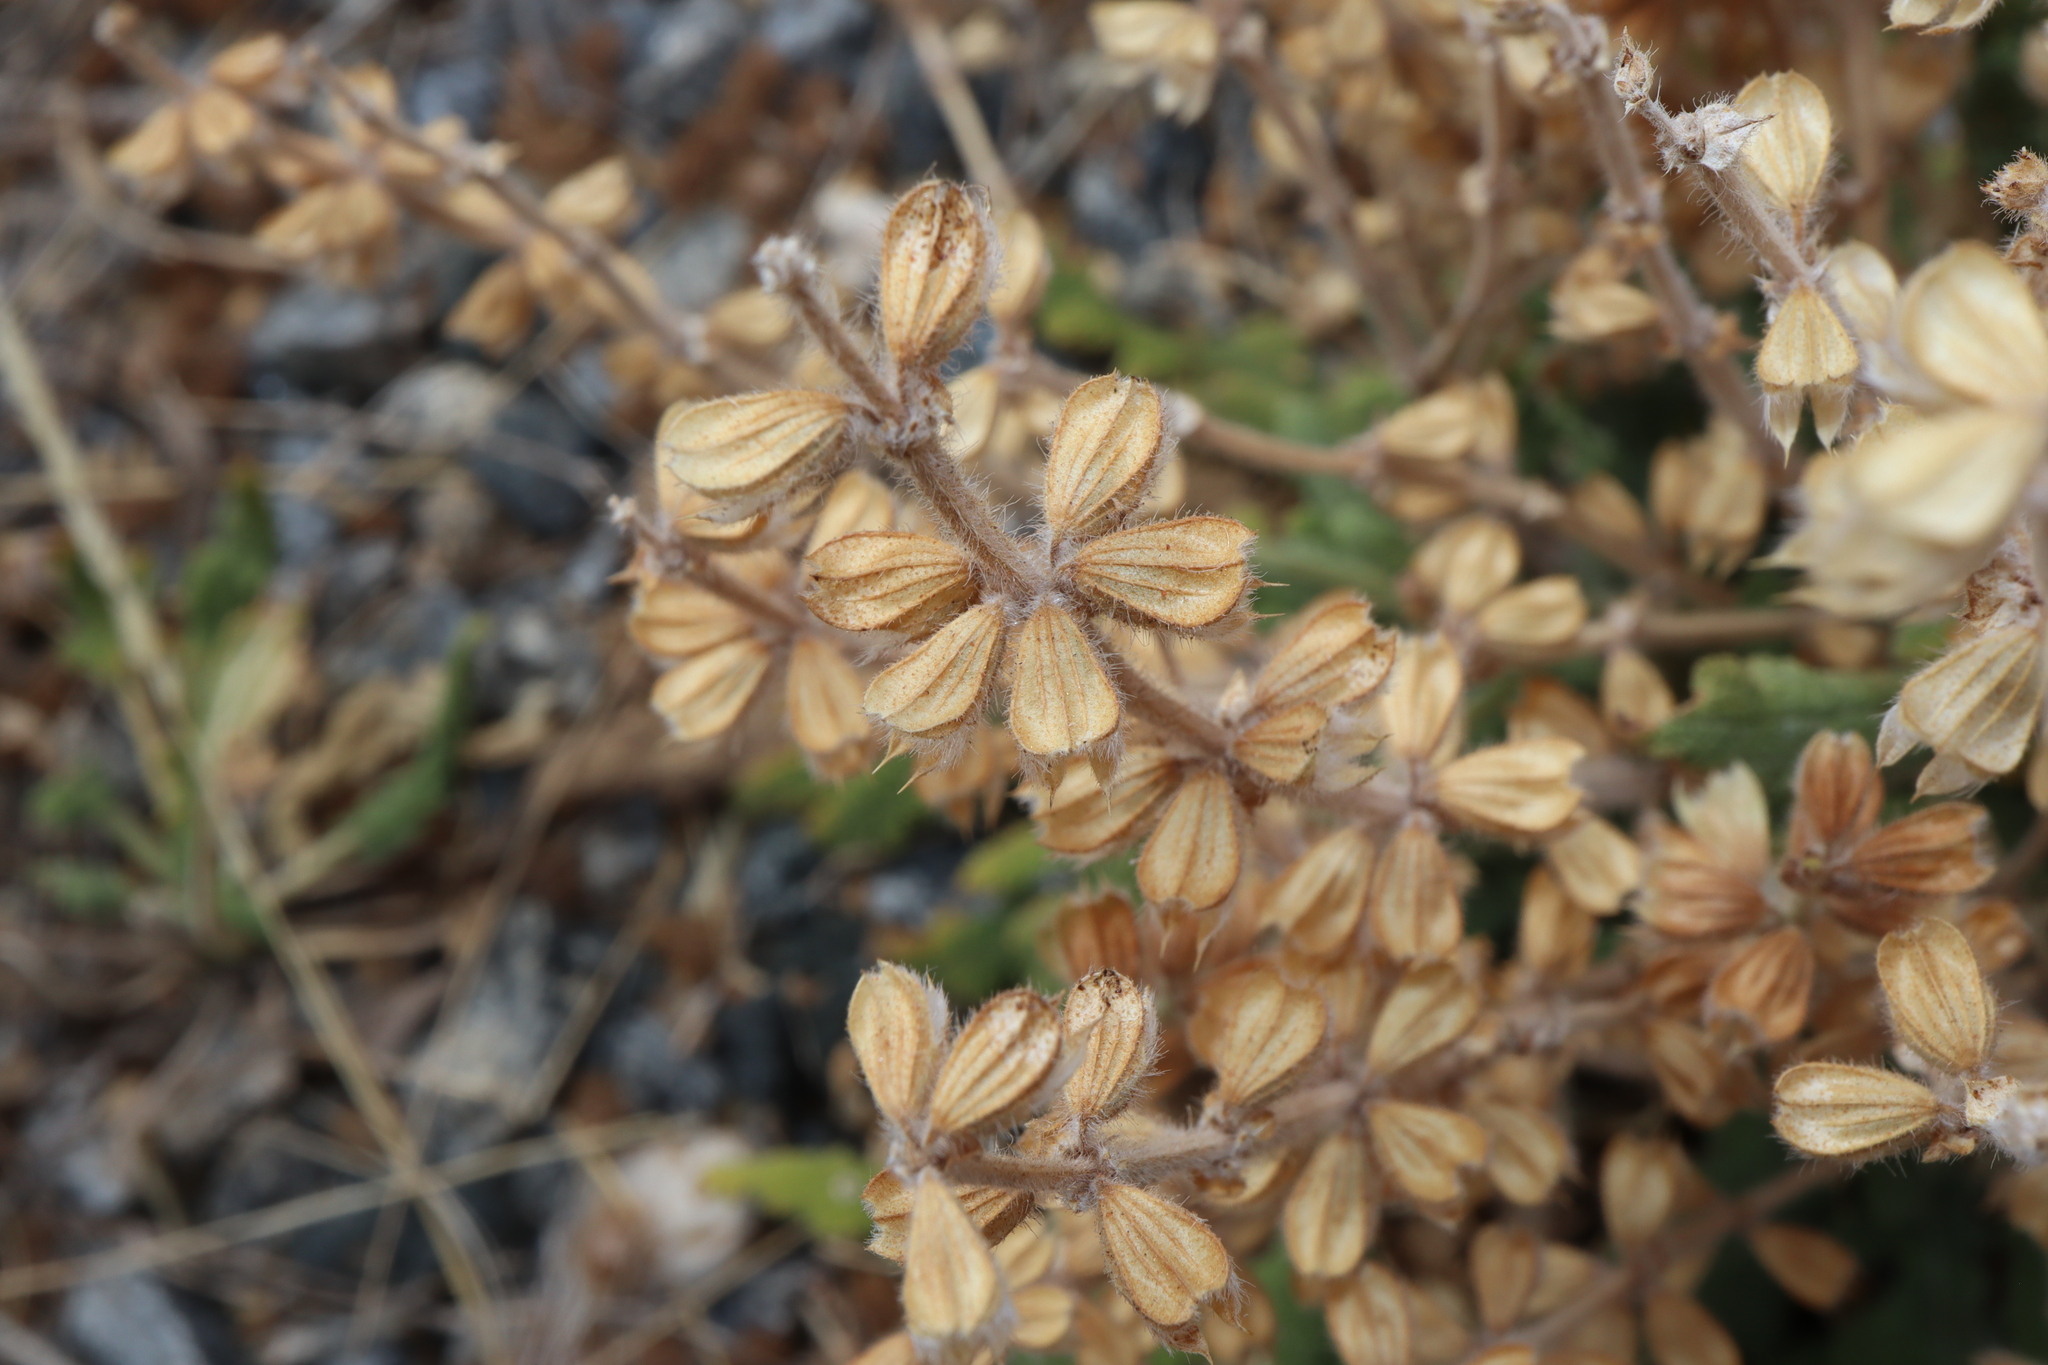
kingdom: Plantae
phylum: Tracheophyta
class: Magnoliopsida
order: Lamiales
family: Lamiaceae
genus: Salvia
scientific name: Salvia verbenaca
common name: Wild clary
